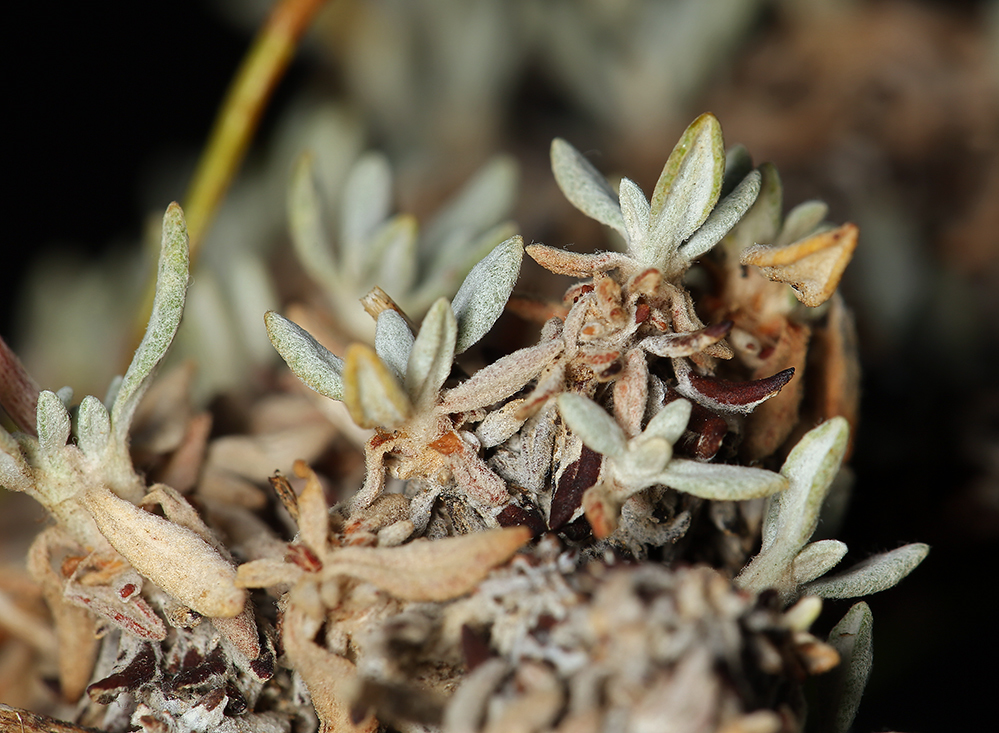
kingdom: Plantae
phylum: Tracheophyta
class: Magnoliopsida
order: Caryophyllales
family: Polygonaceae
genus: Eriogonum
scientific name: Eriogonum wrightii
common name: Bastard-sage
